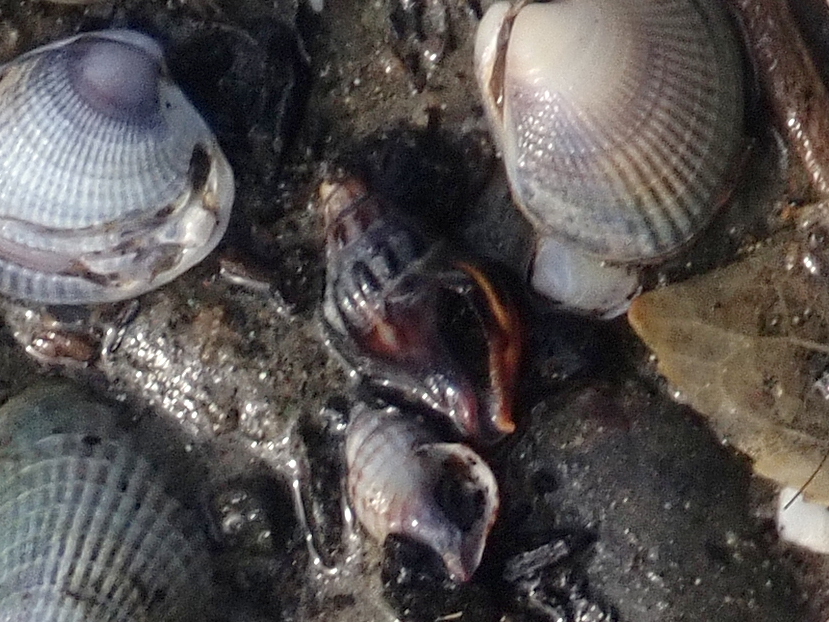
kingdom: Animalia
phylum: Mollusca
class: Gastropoda
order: Neogastropoda
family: Cominellidae
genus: Cominella
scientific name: Cominella glandiformis
